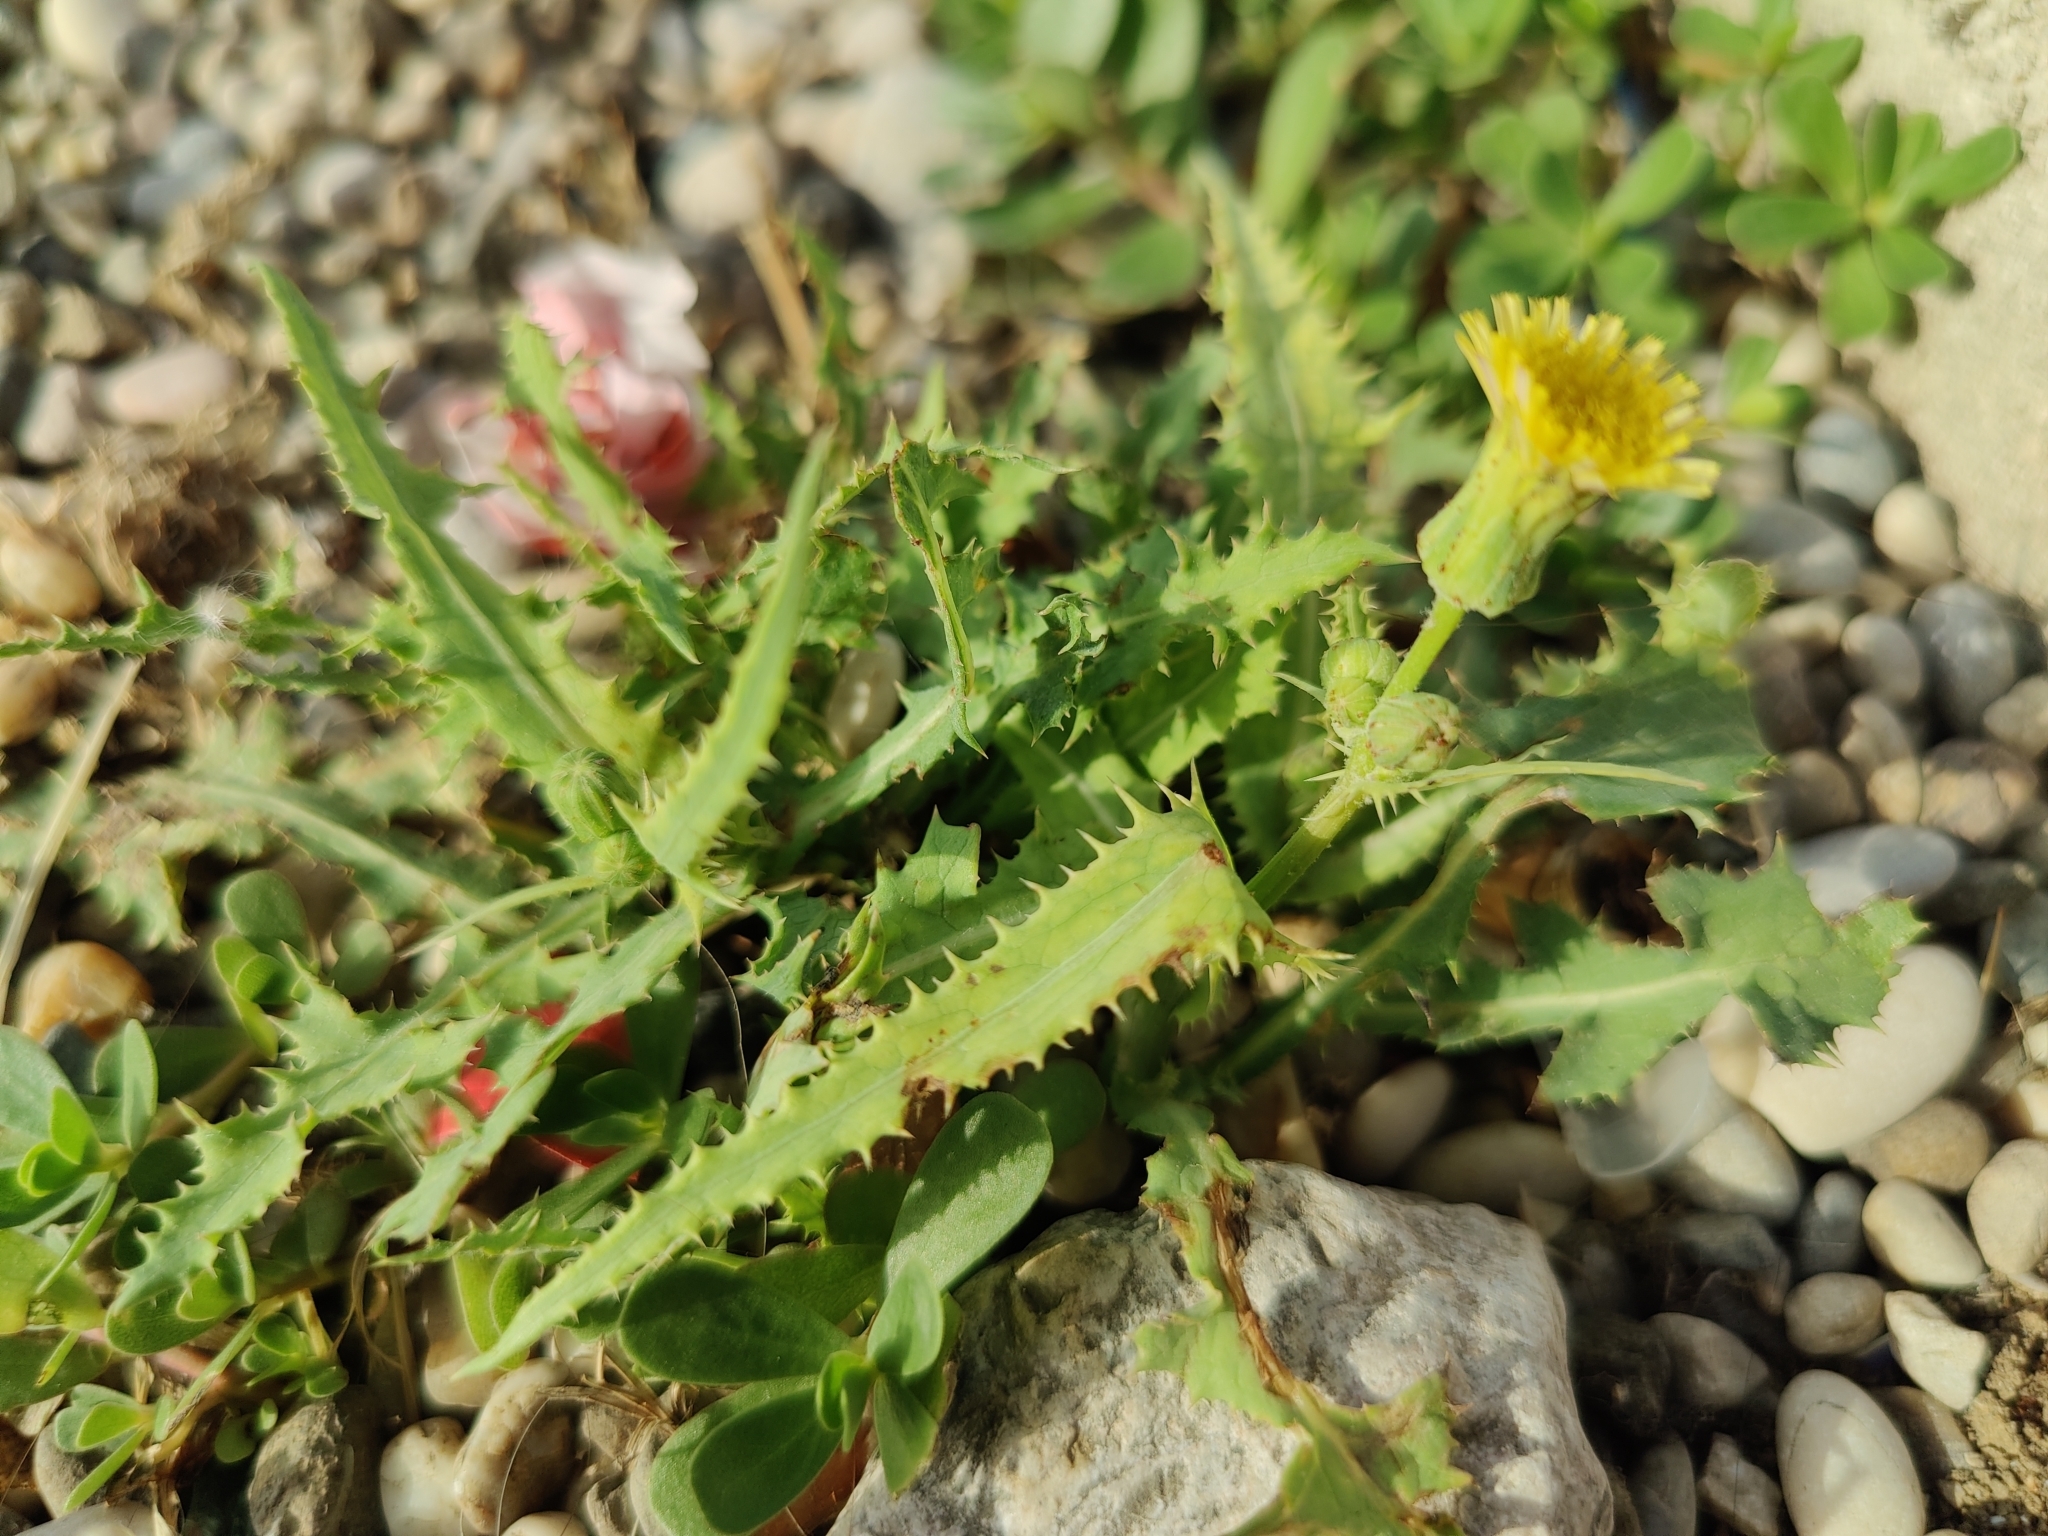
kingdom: Plantae
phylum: Tracheophyta
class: Magnoliopsida
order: Asterales
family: Asteraceae
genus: Sonchus
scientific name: Sonchus asper
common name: Prickly sow-thistle
